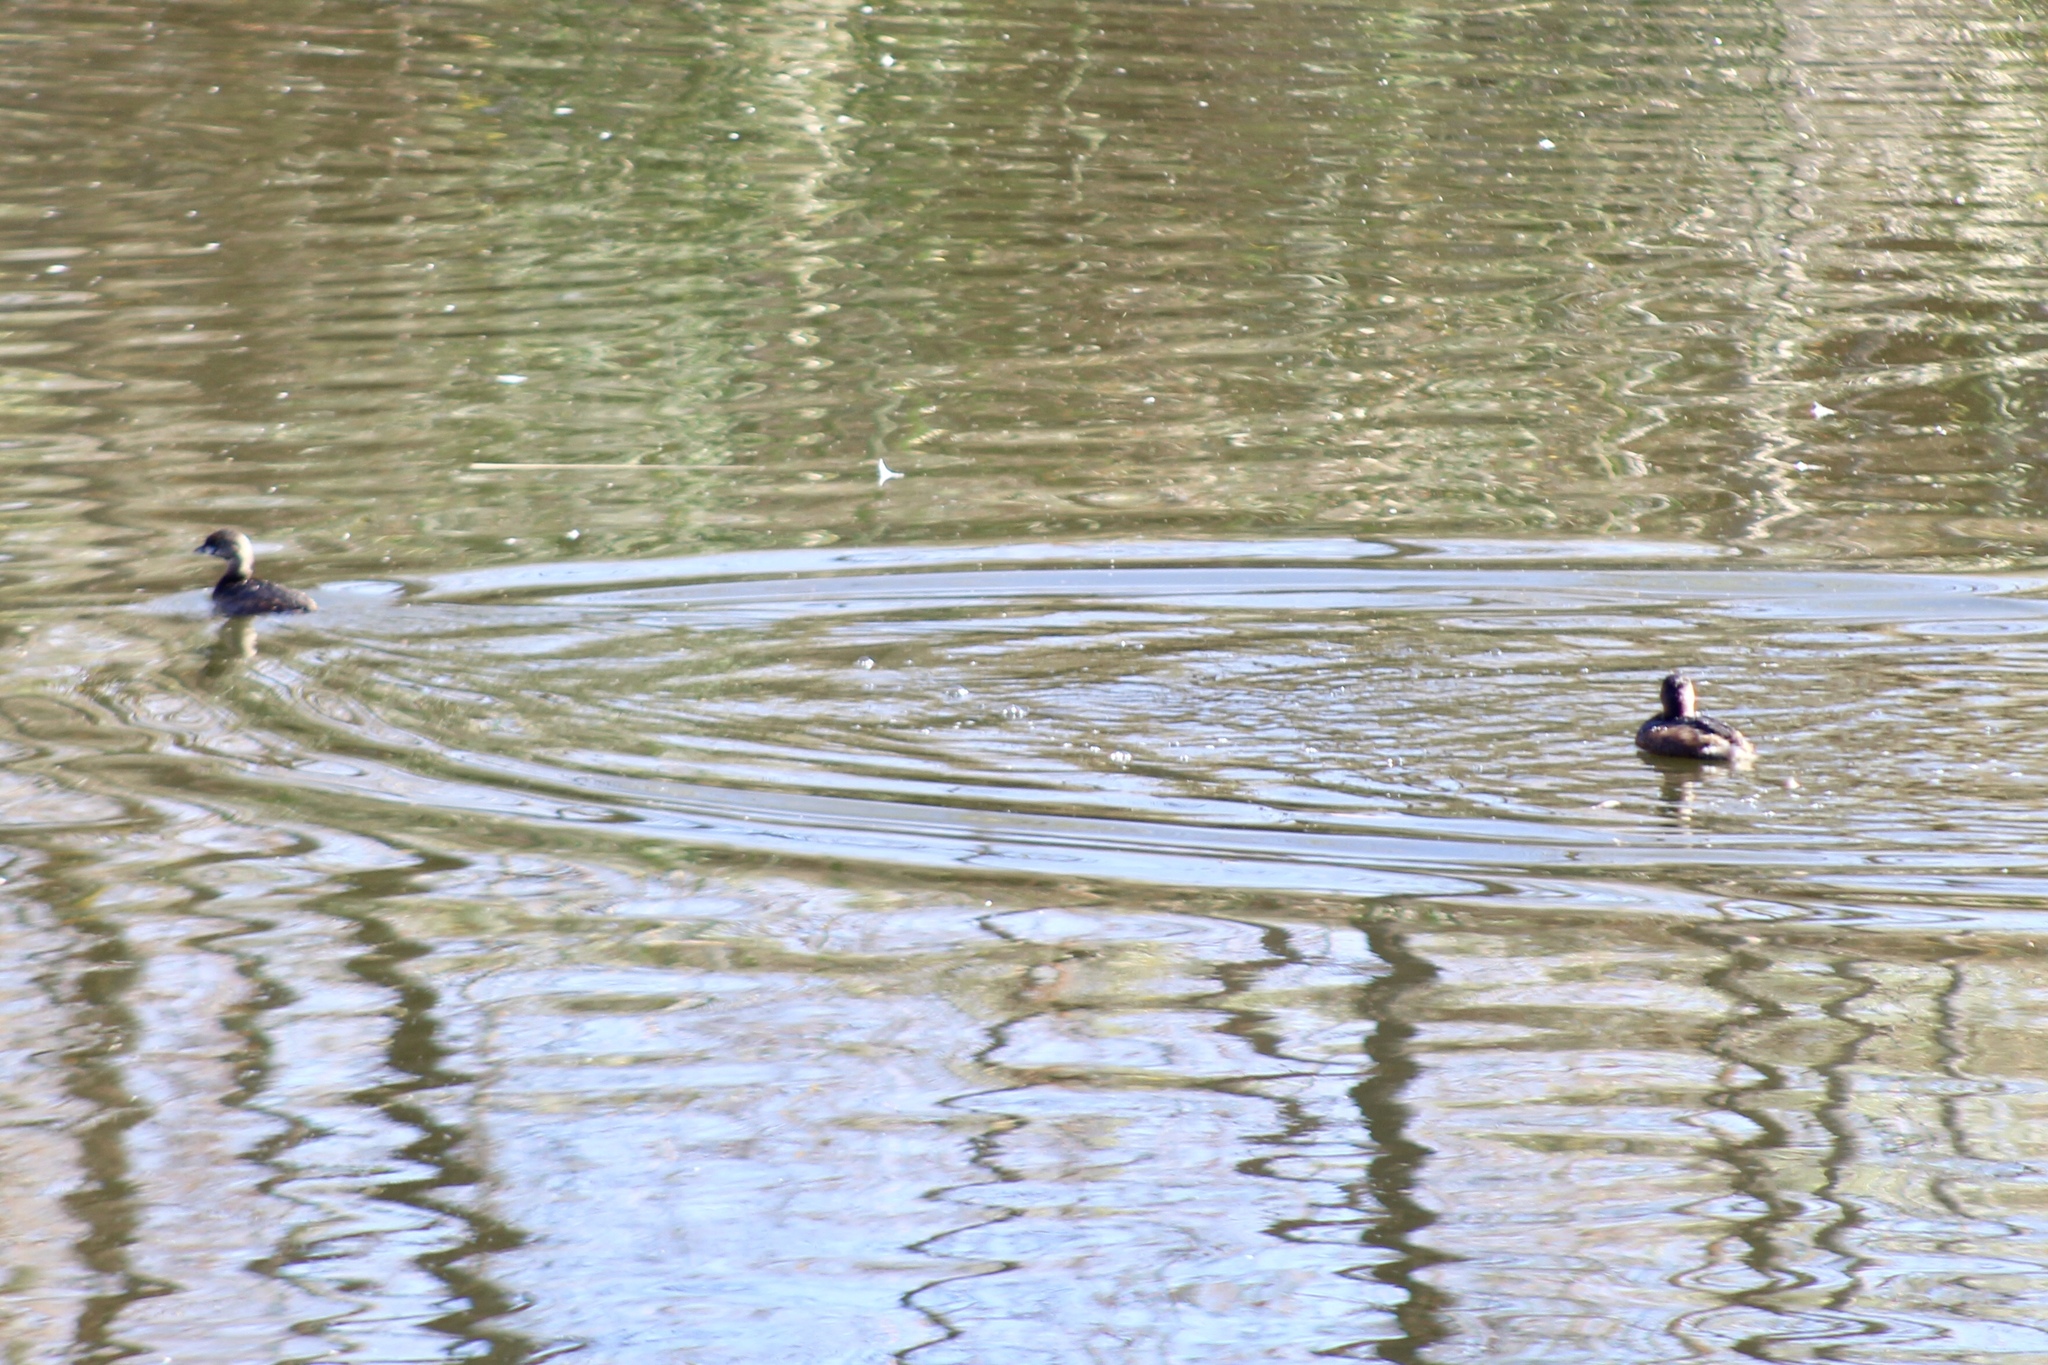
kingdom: Animalia
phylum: Chordata
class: Aves
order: Podicipediformes
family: Podicipedidae
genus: Podilymbus
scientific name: Podilymbus podiceps
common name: Pied-billed grebe
